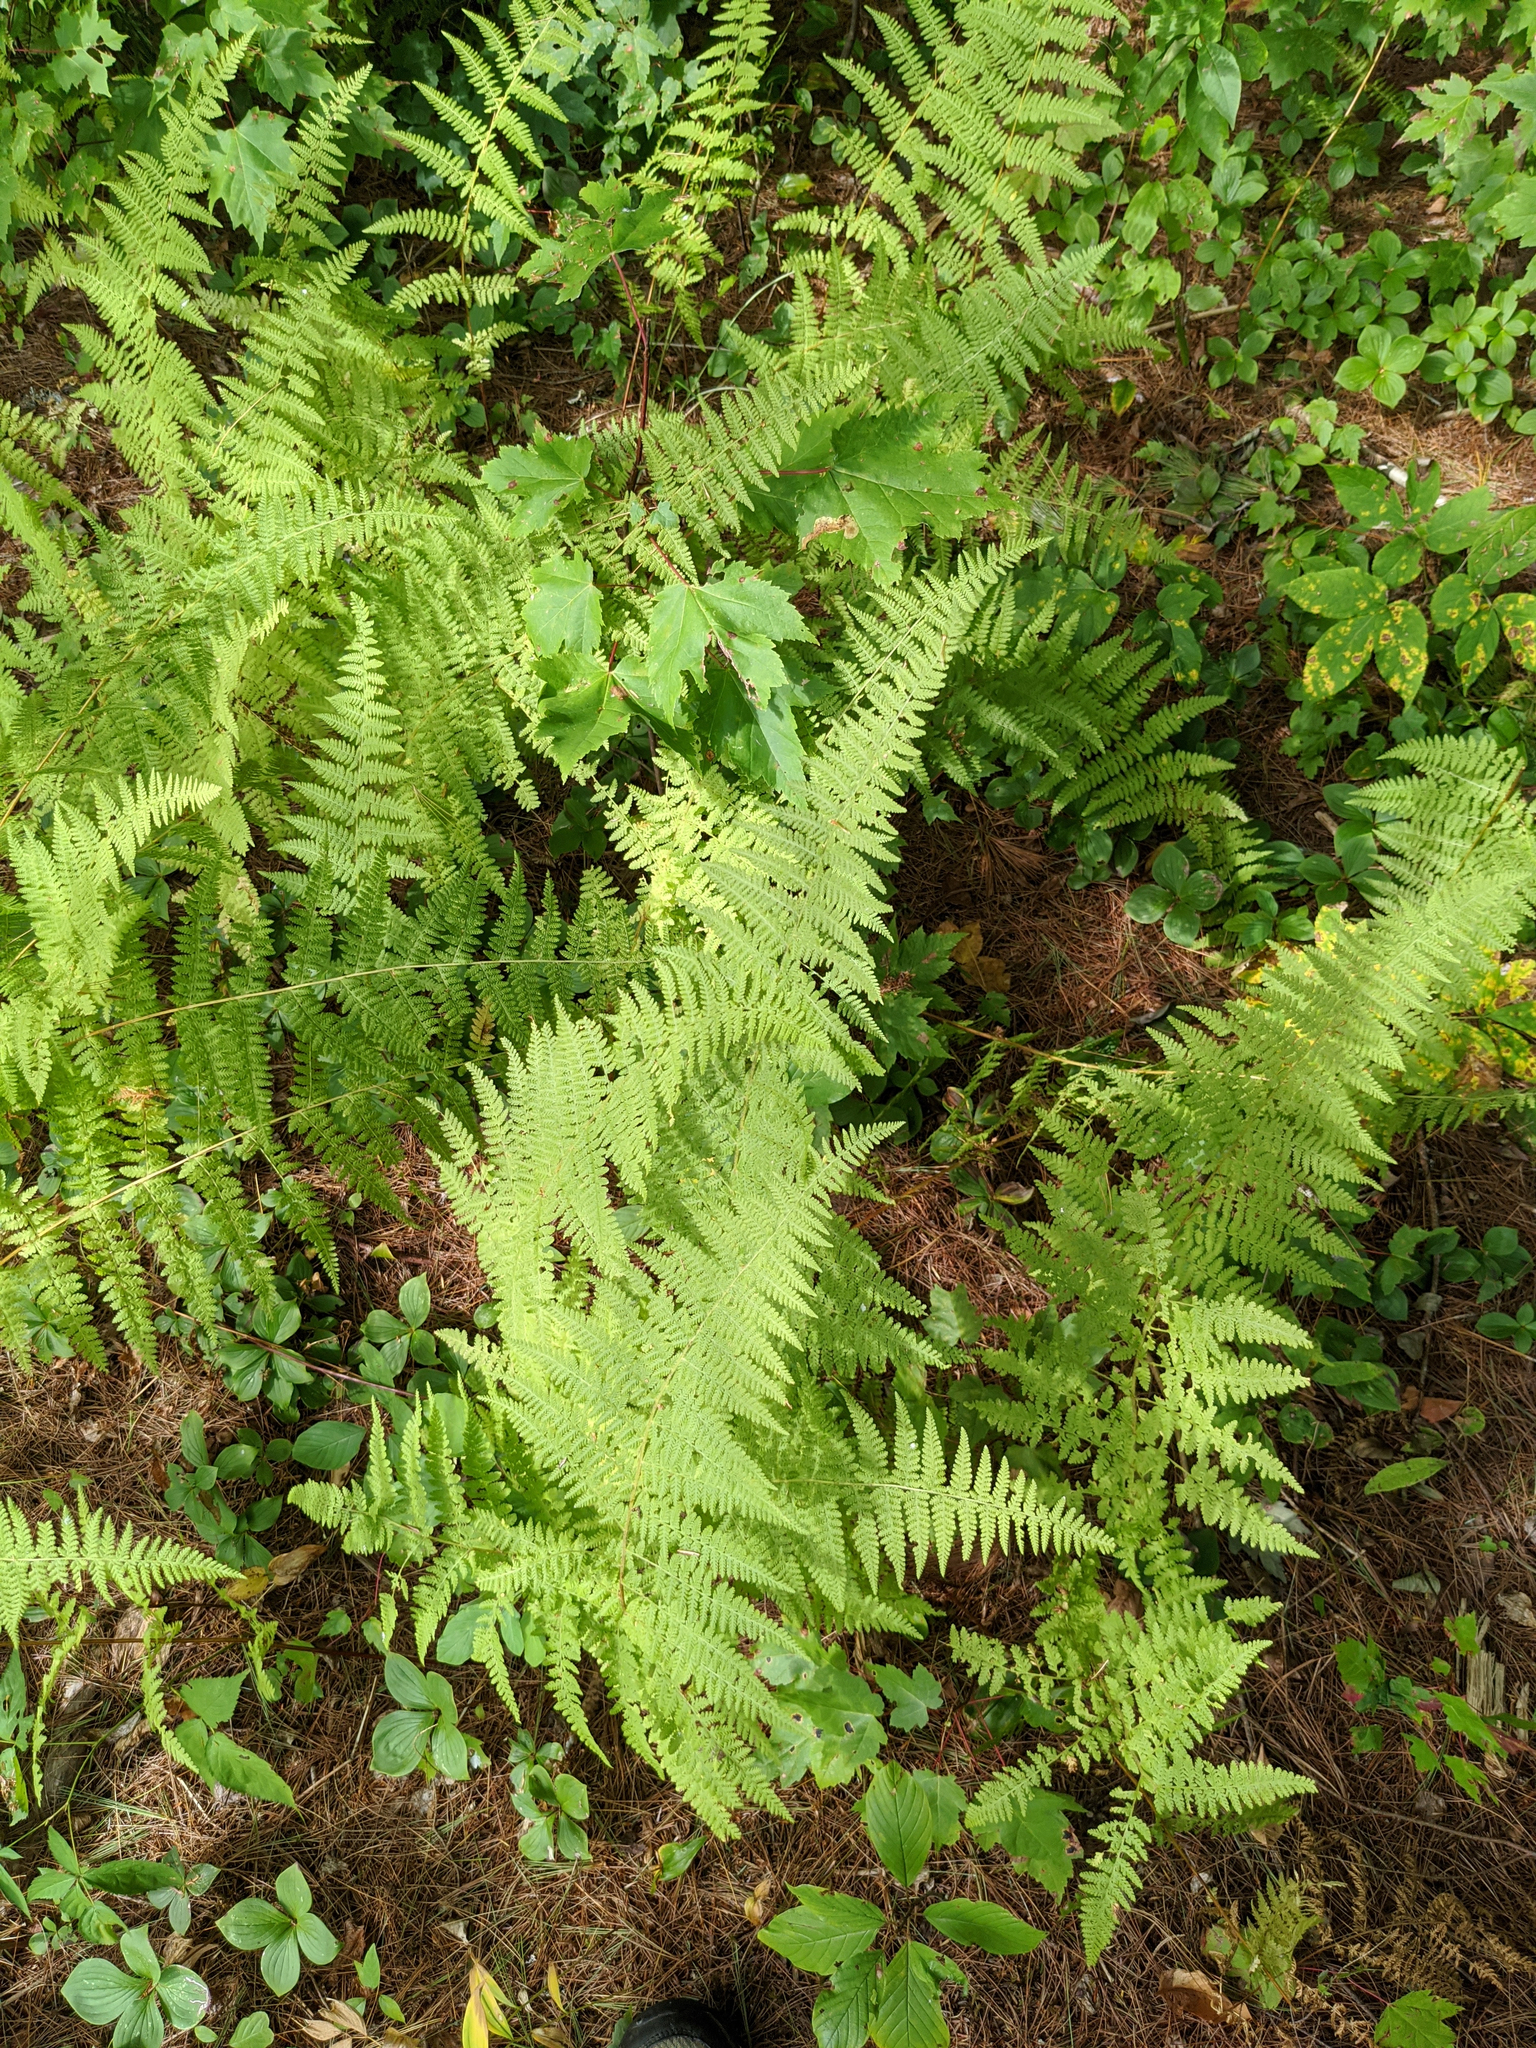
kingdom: Plantae
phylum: Tracheophyta
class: Polypodiopsida
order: Polypodiales
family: Dennstaedtiaceae
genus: Sitobolium
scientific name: Sitobolium punctilobum
